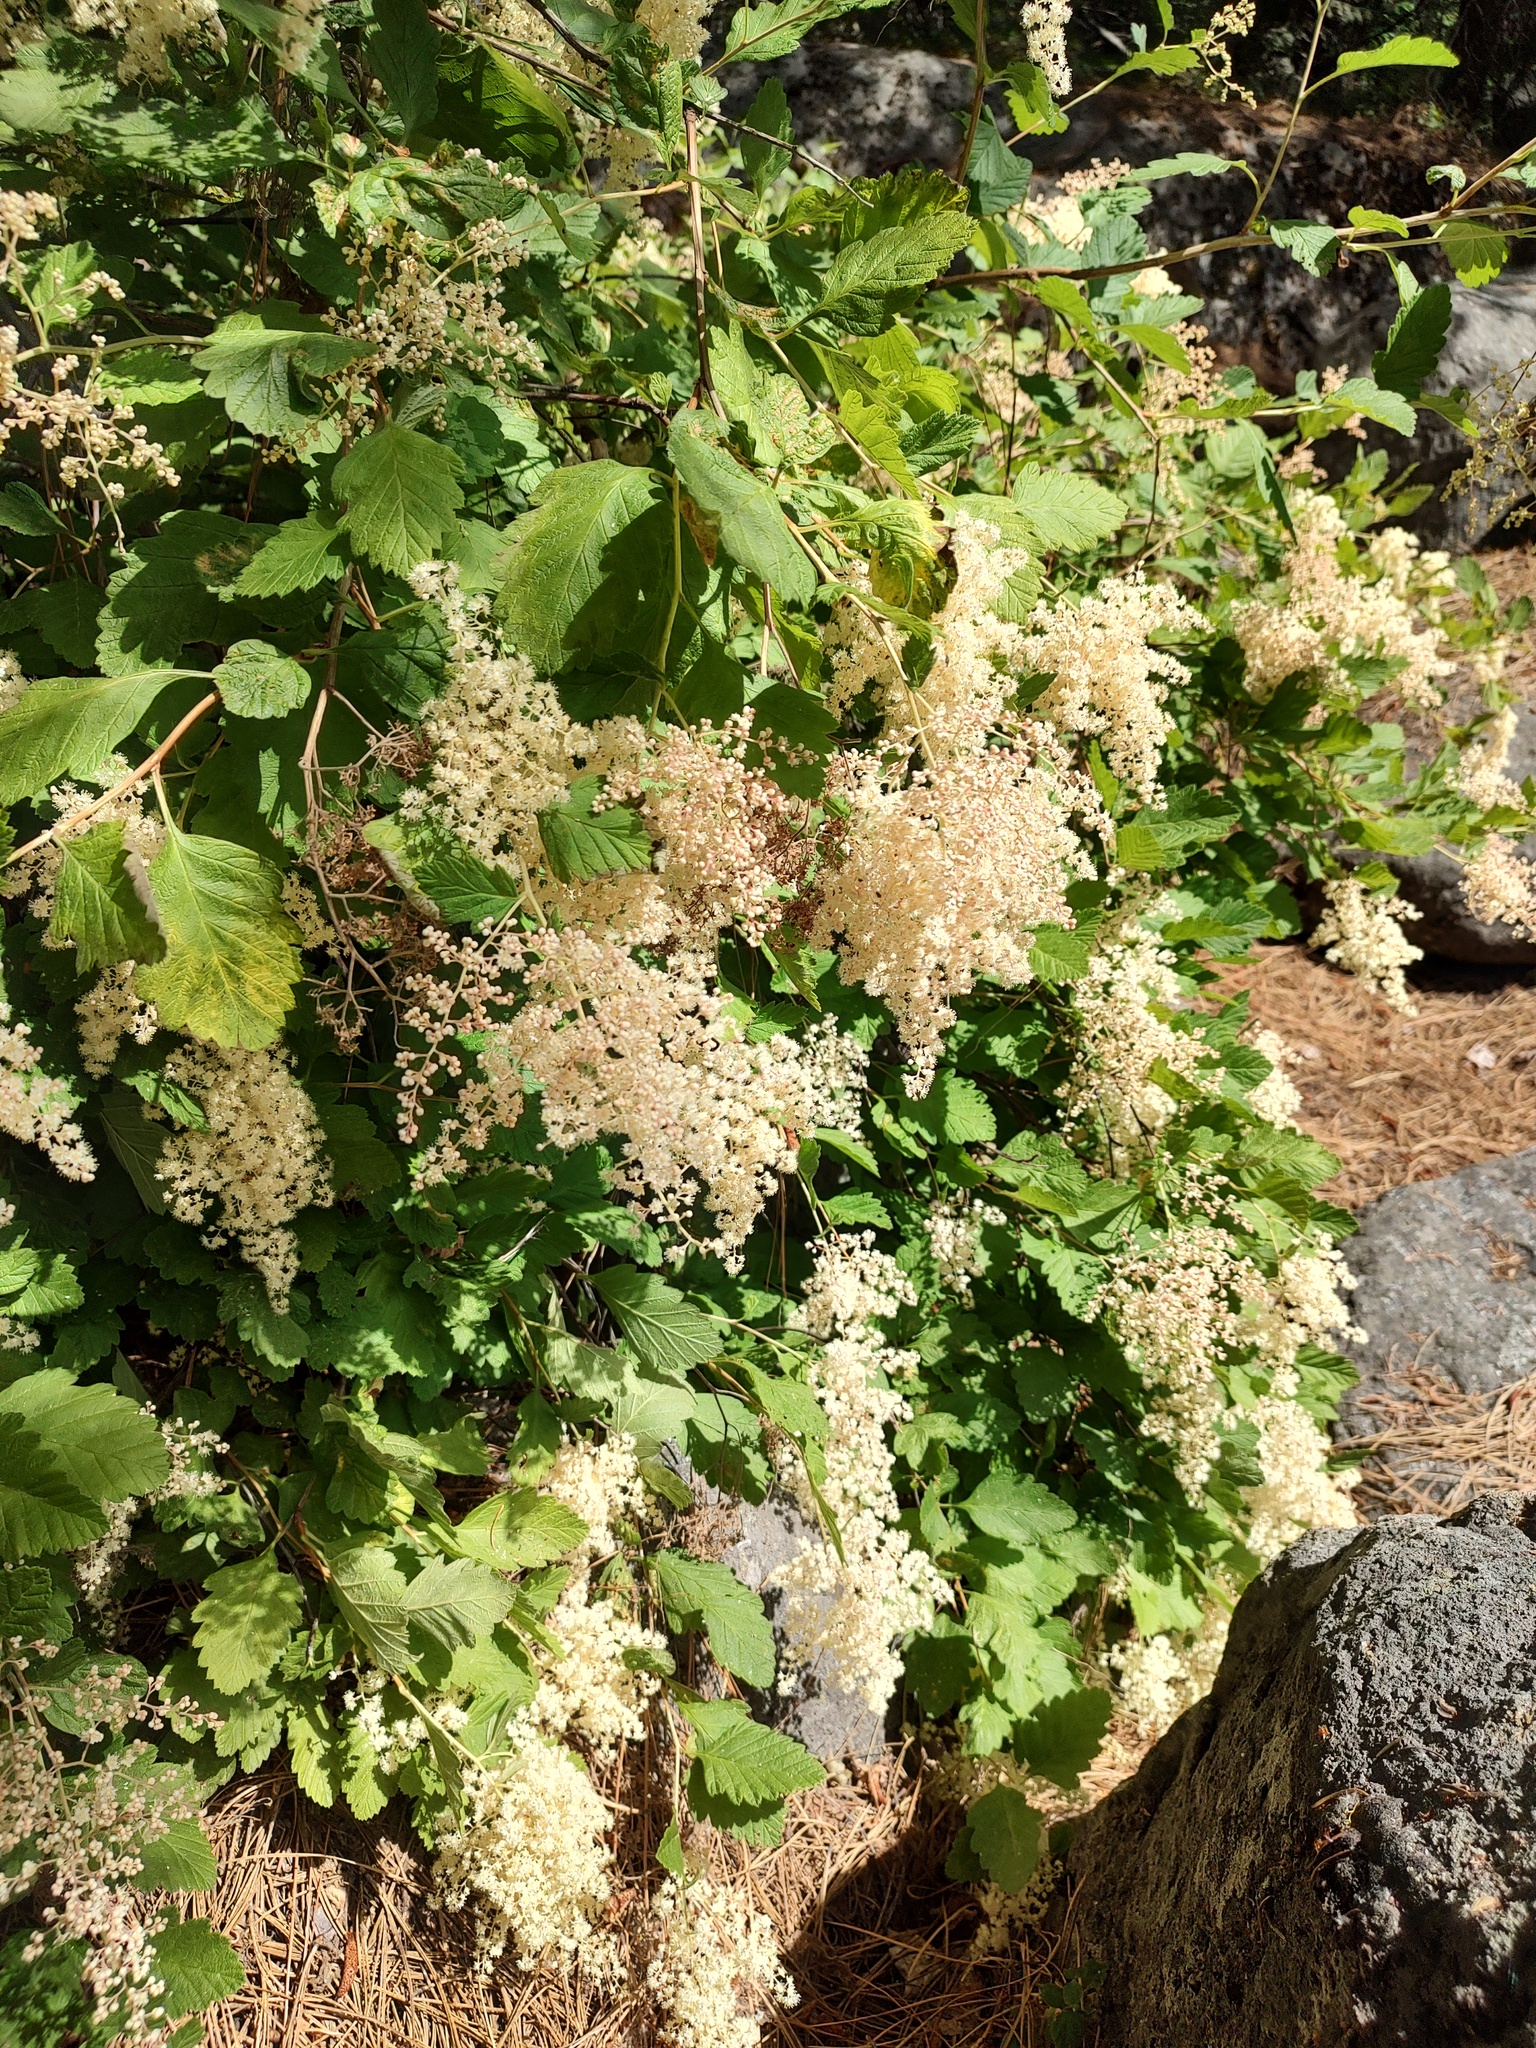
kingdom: Plantae
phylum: Tracheophyta
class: Magnoliopsida
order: Rosales
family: Rosaceae
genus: Holodiscus
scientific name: Holodiscus discolor
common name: Oceanspray
